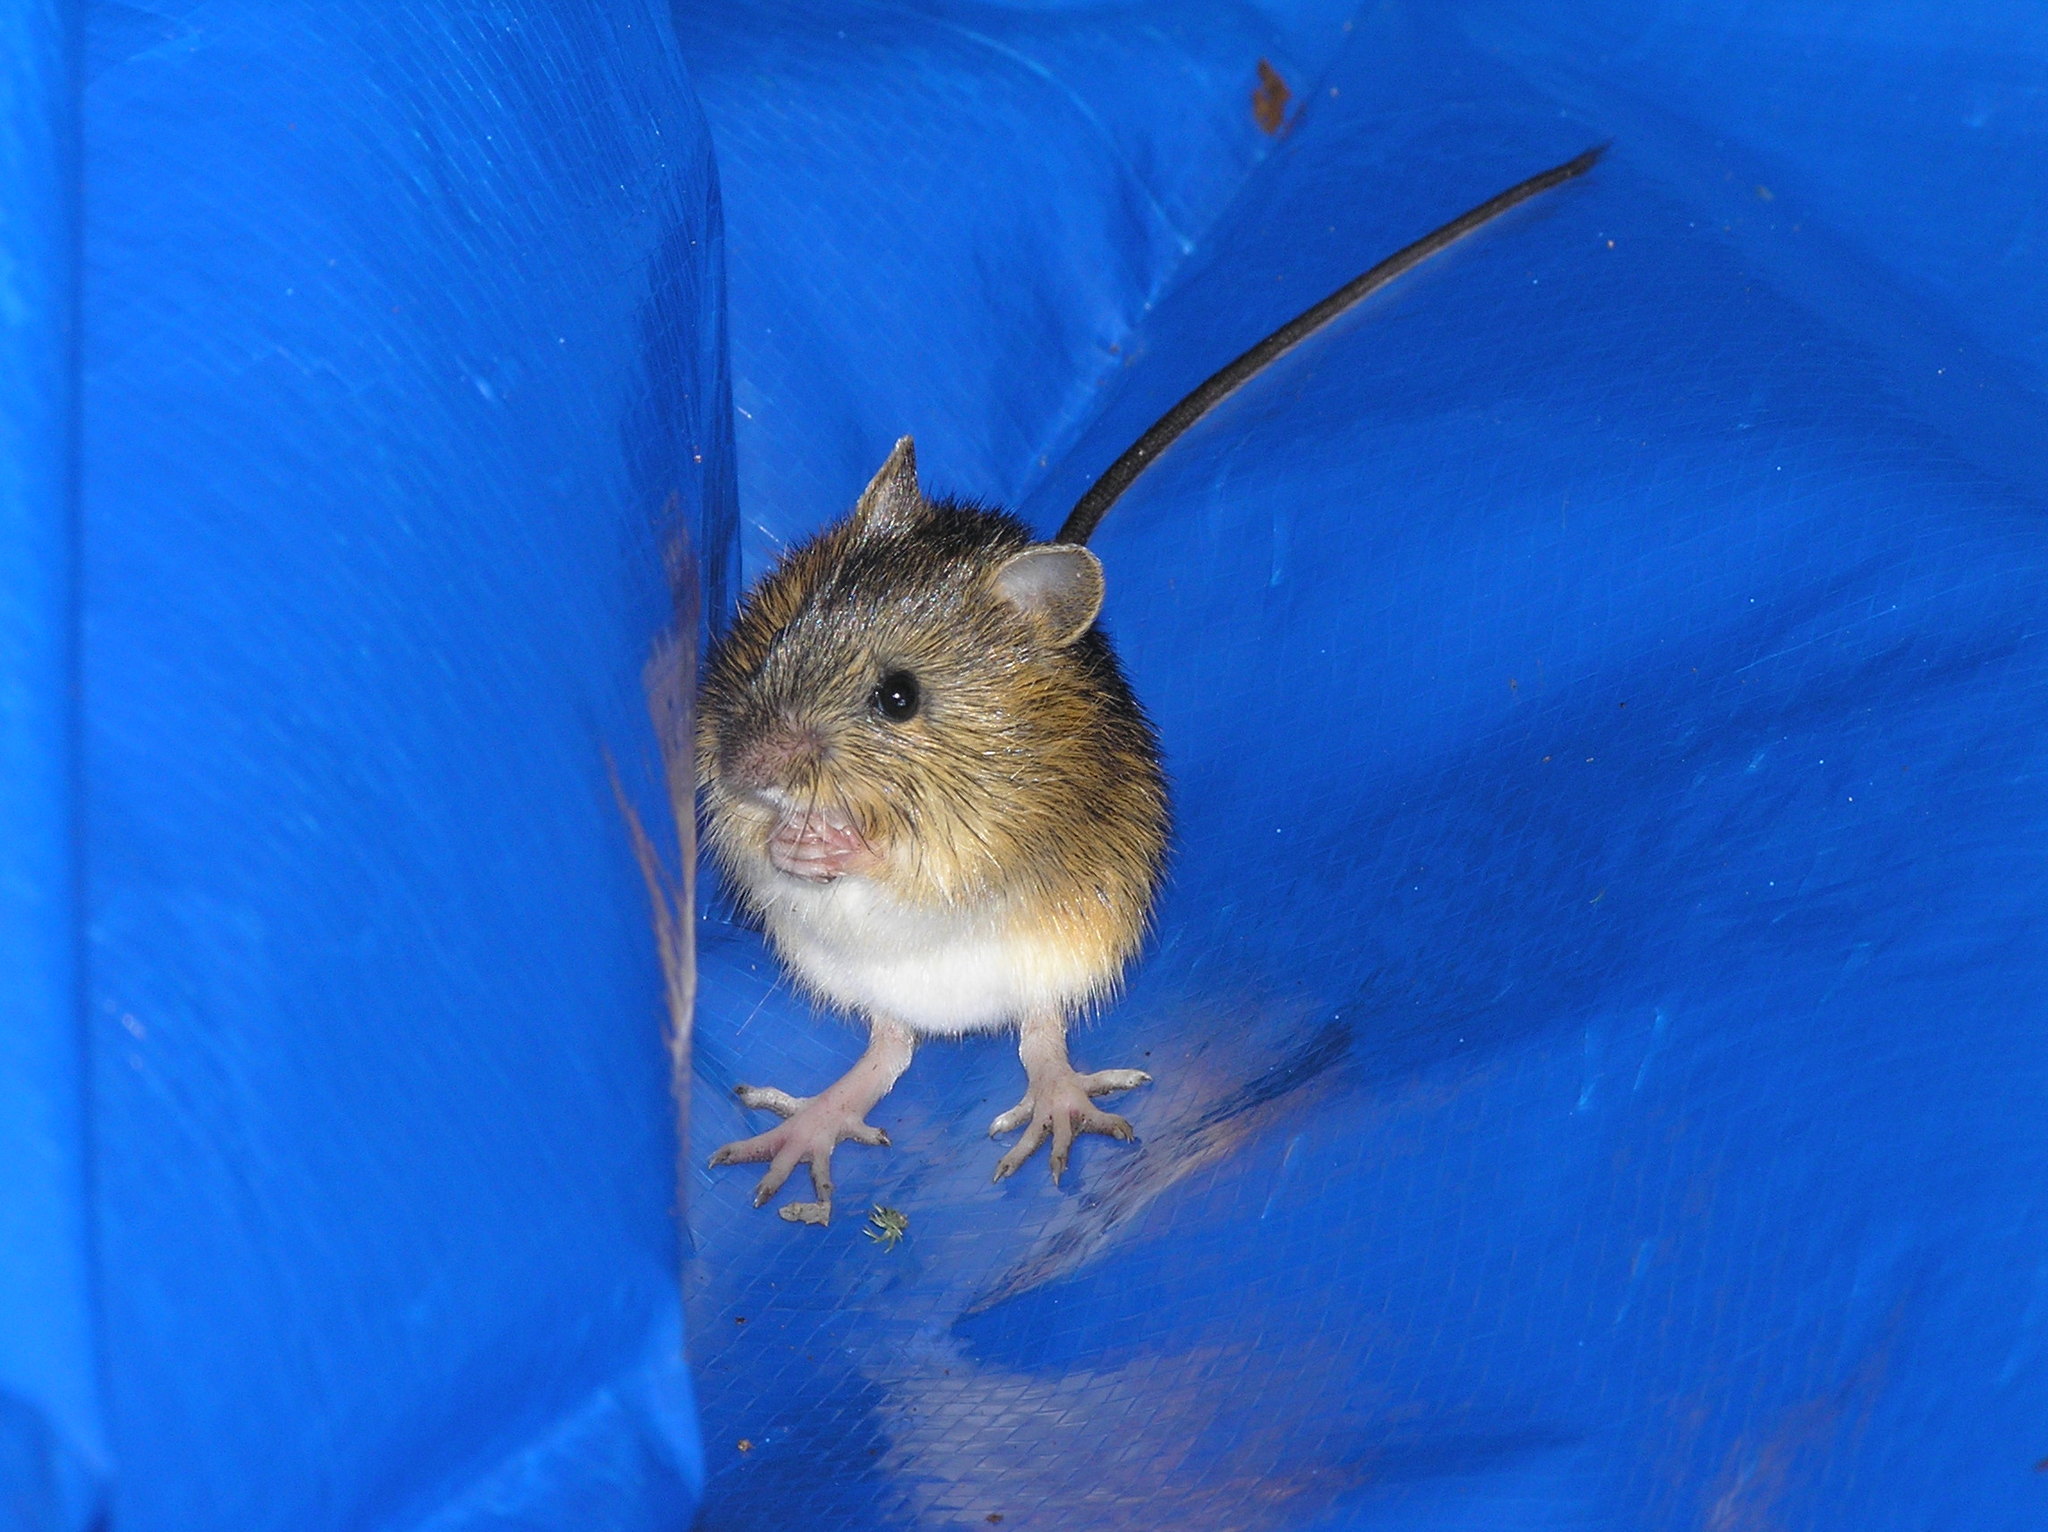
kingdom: Animalia
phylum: Chordata
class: Mammalia
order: Rodentia
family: Dipodidae
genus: Zapus
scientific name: Zapus hudsonius
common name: Meadow jumping mouse
